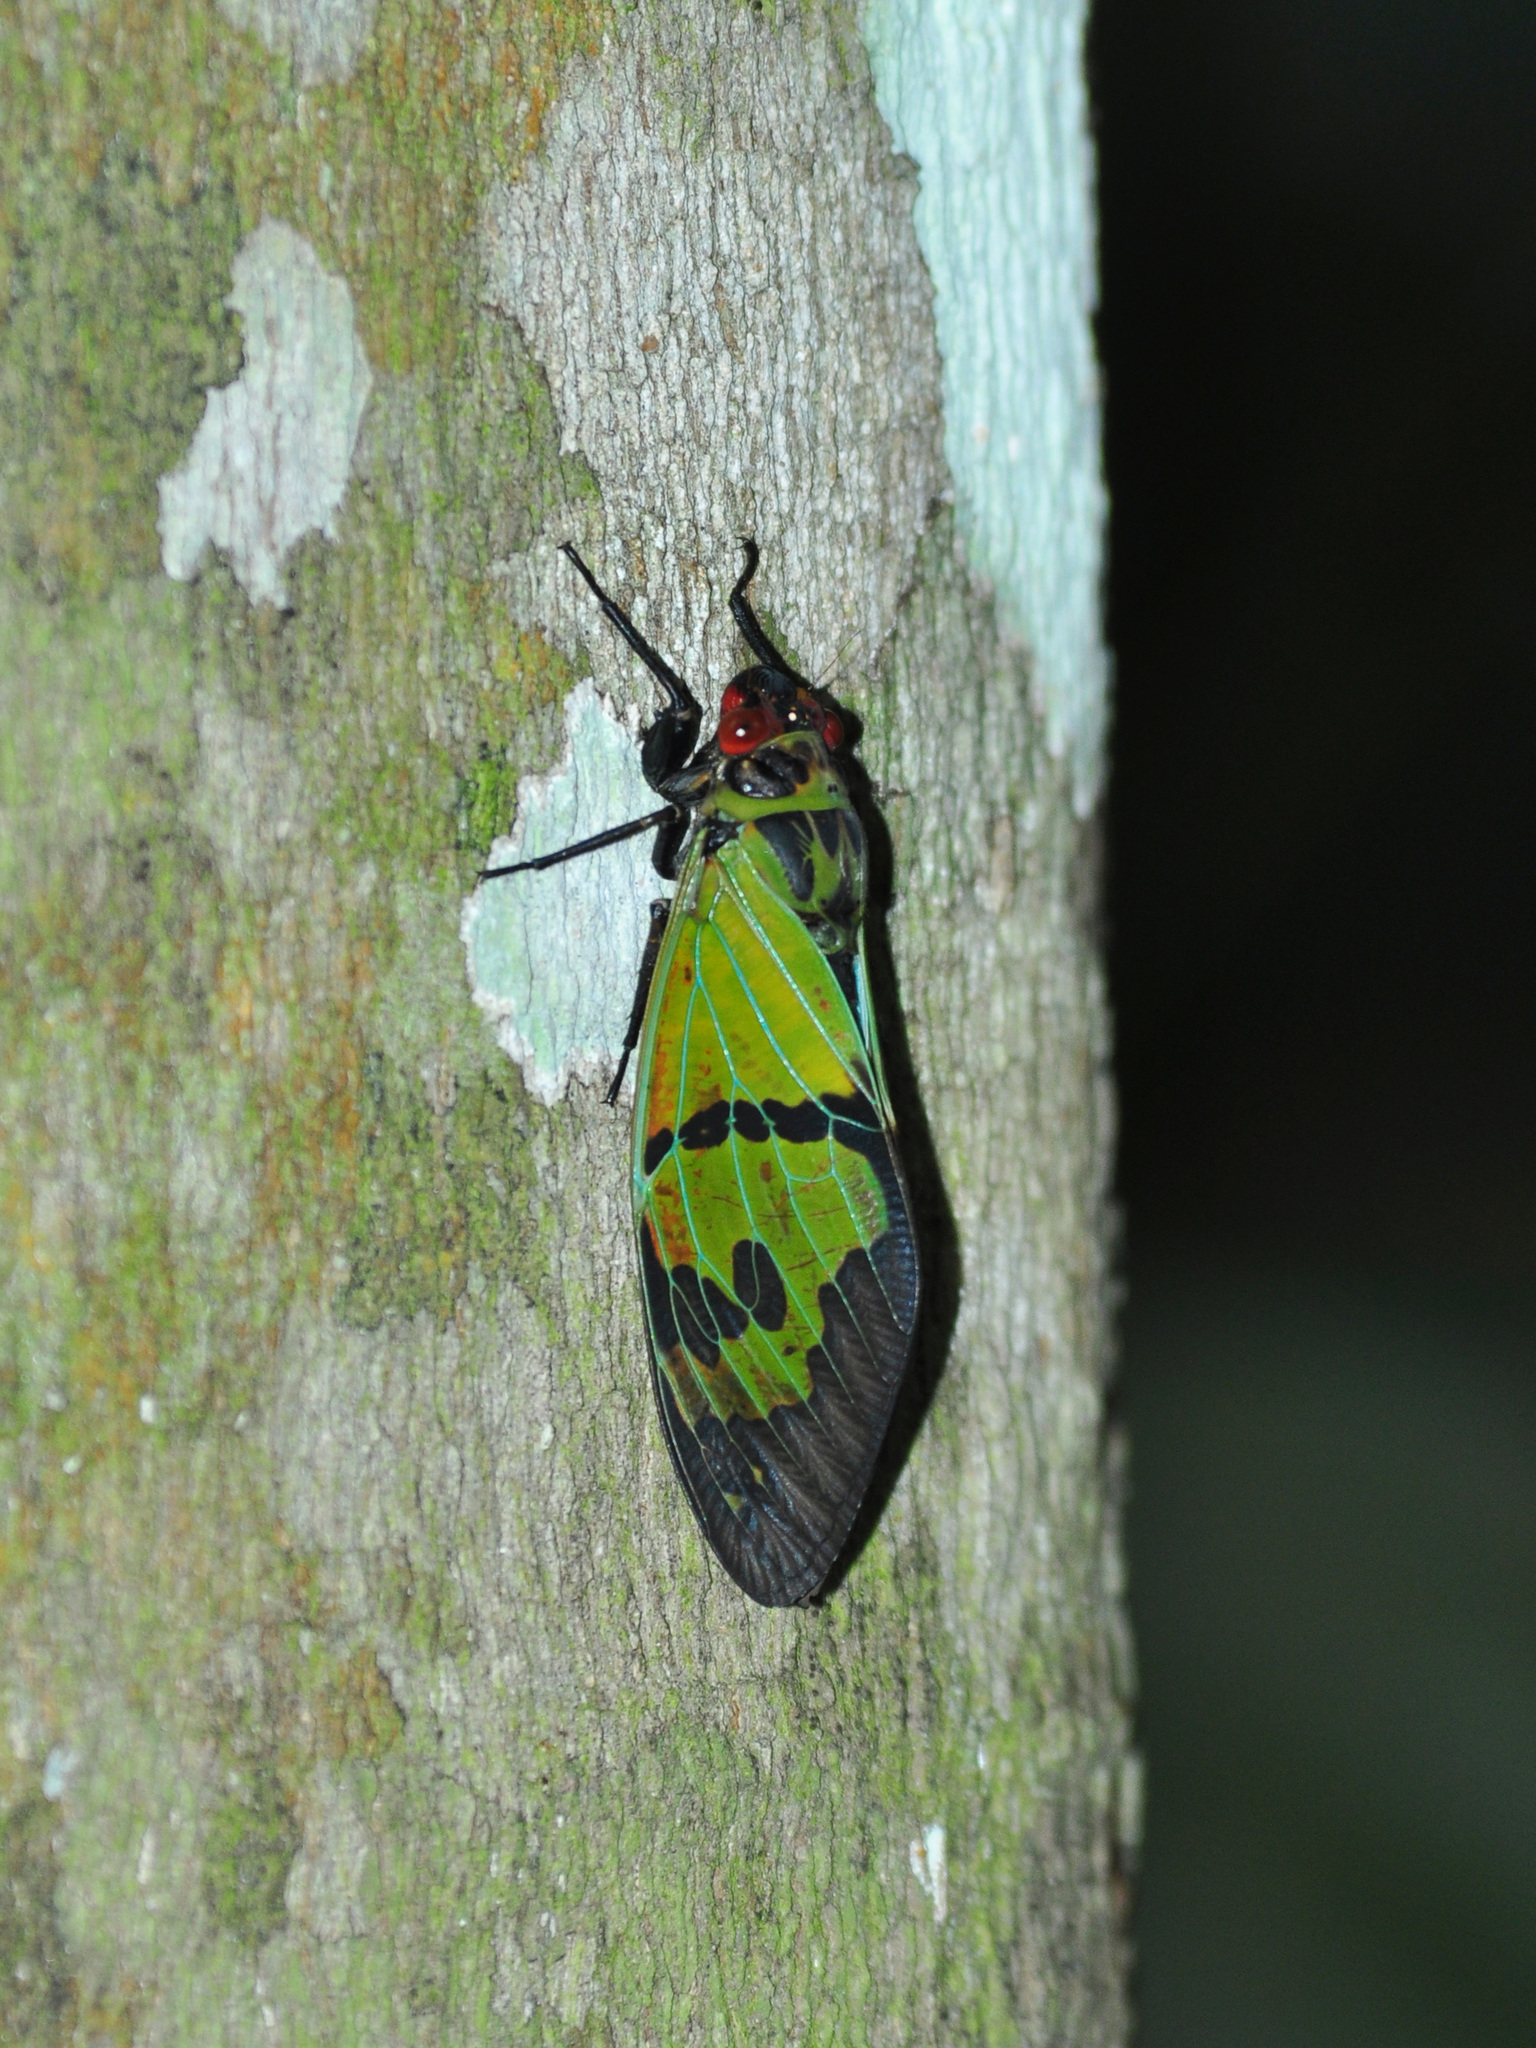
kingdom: Animalia
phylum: Arthropoda
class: Insecta
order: Hemiptera
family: Cicadidae
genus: Callogaeana
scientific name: Callogaeana festiva
